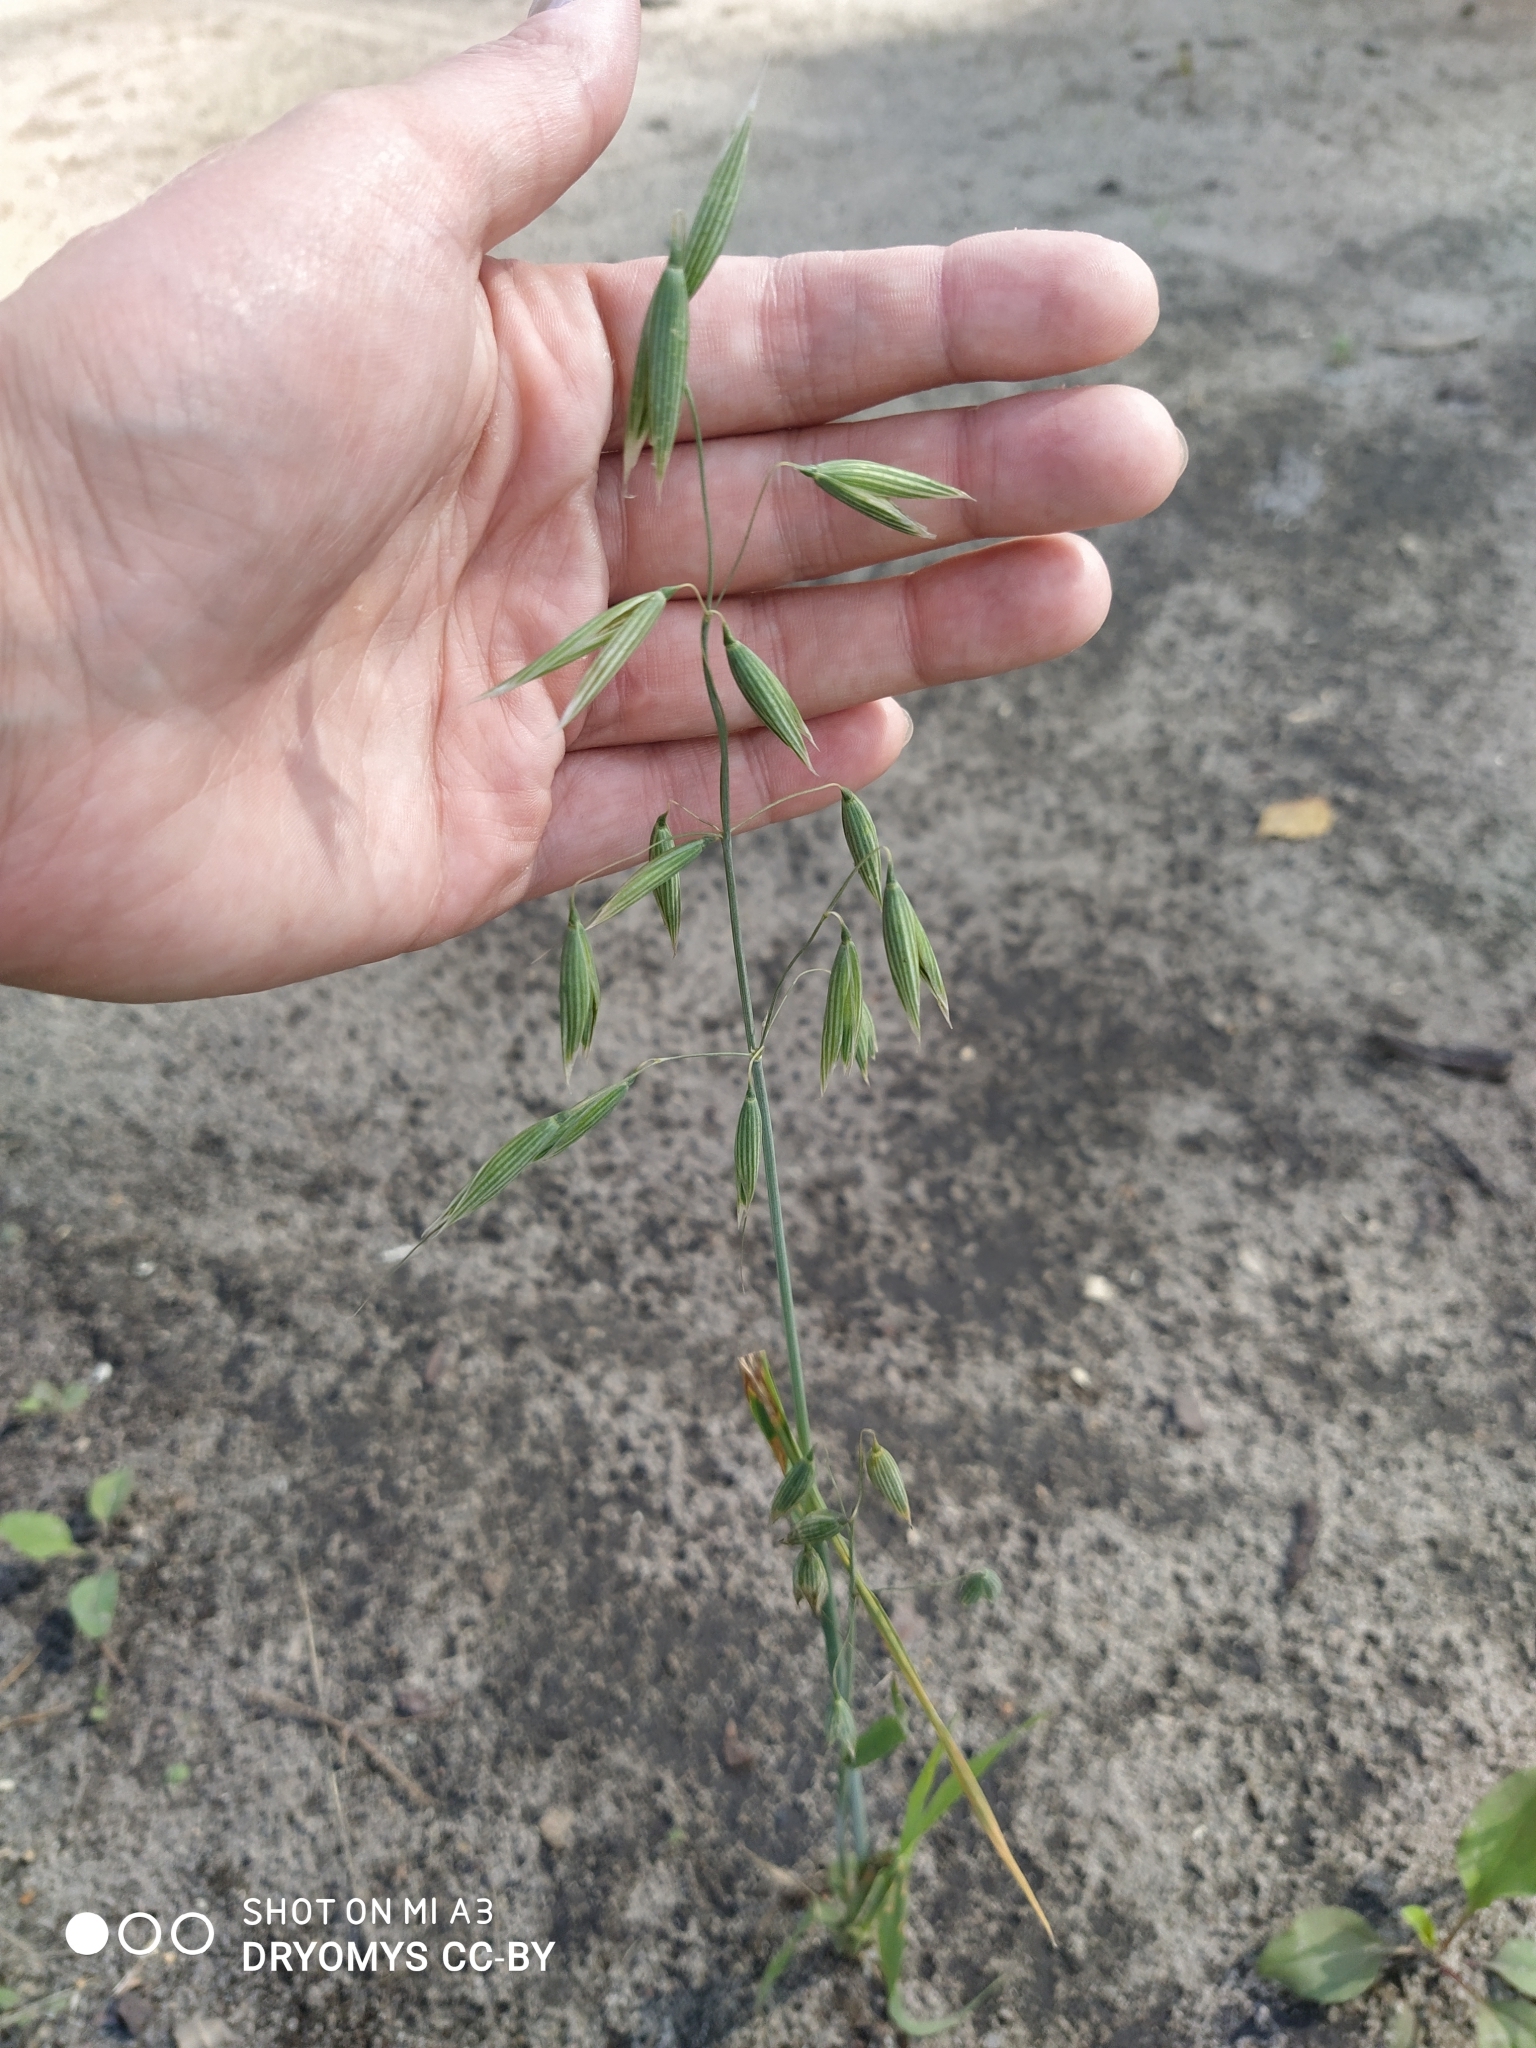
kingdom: Plantae
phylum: Tracheophyta
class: Liliopsida
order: Poales
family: Poaceae
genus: Avena
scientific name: Avena sativa
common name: Oat
